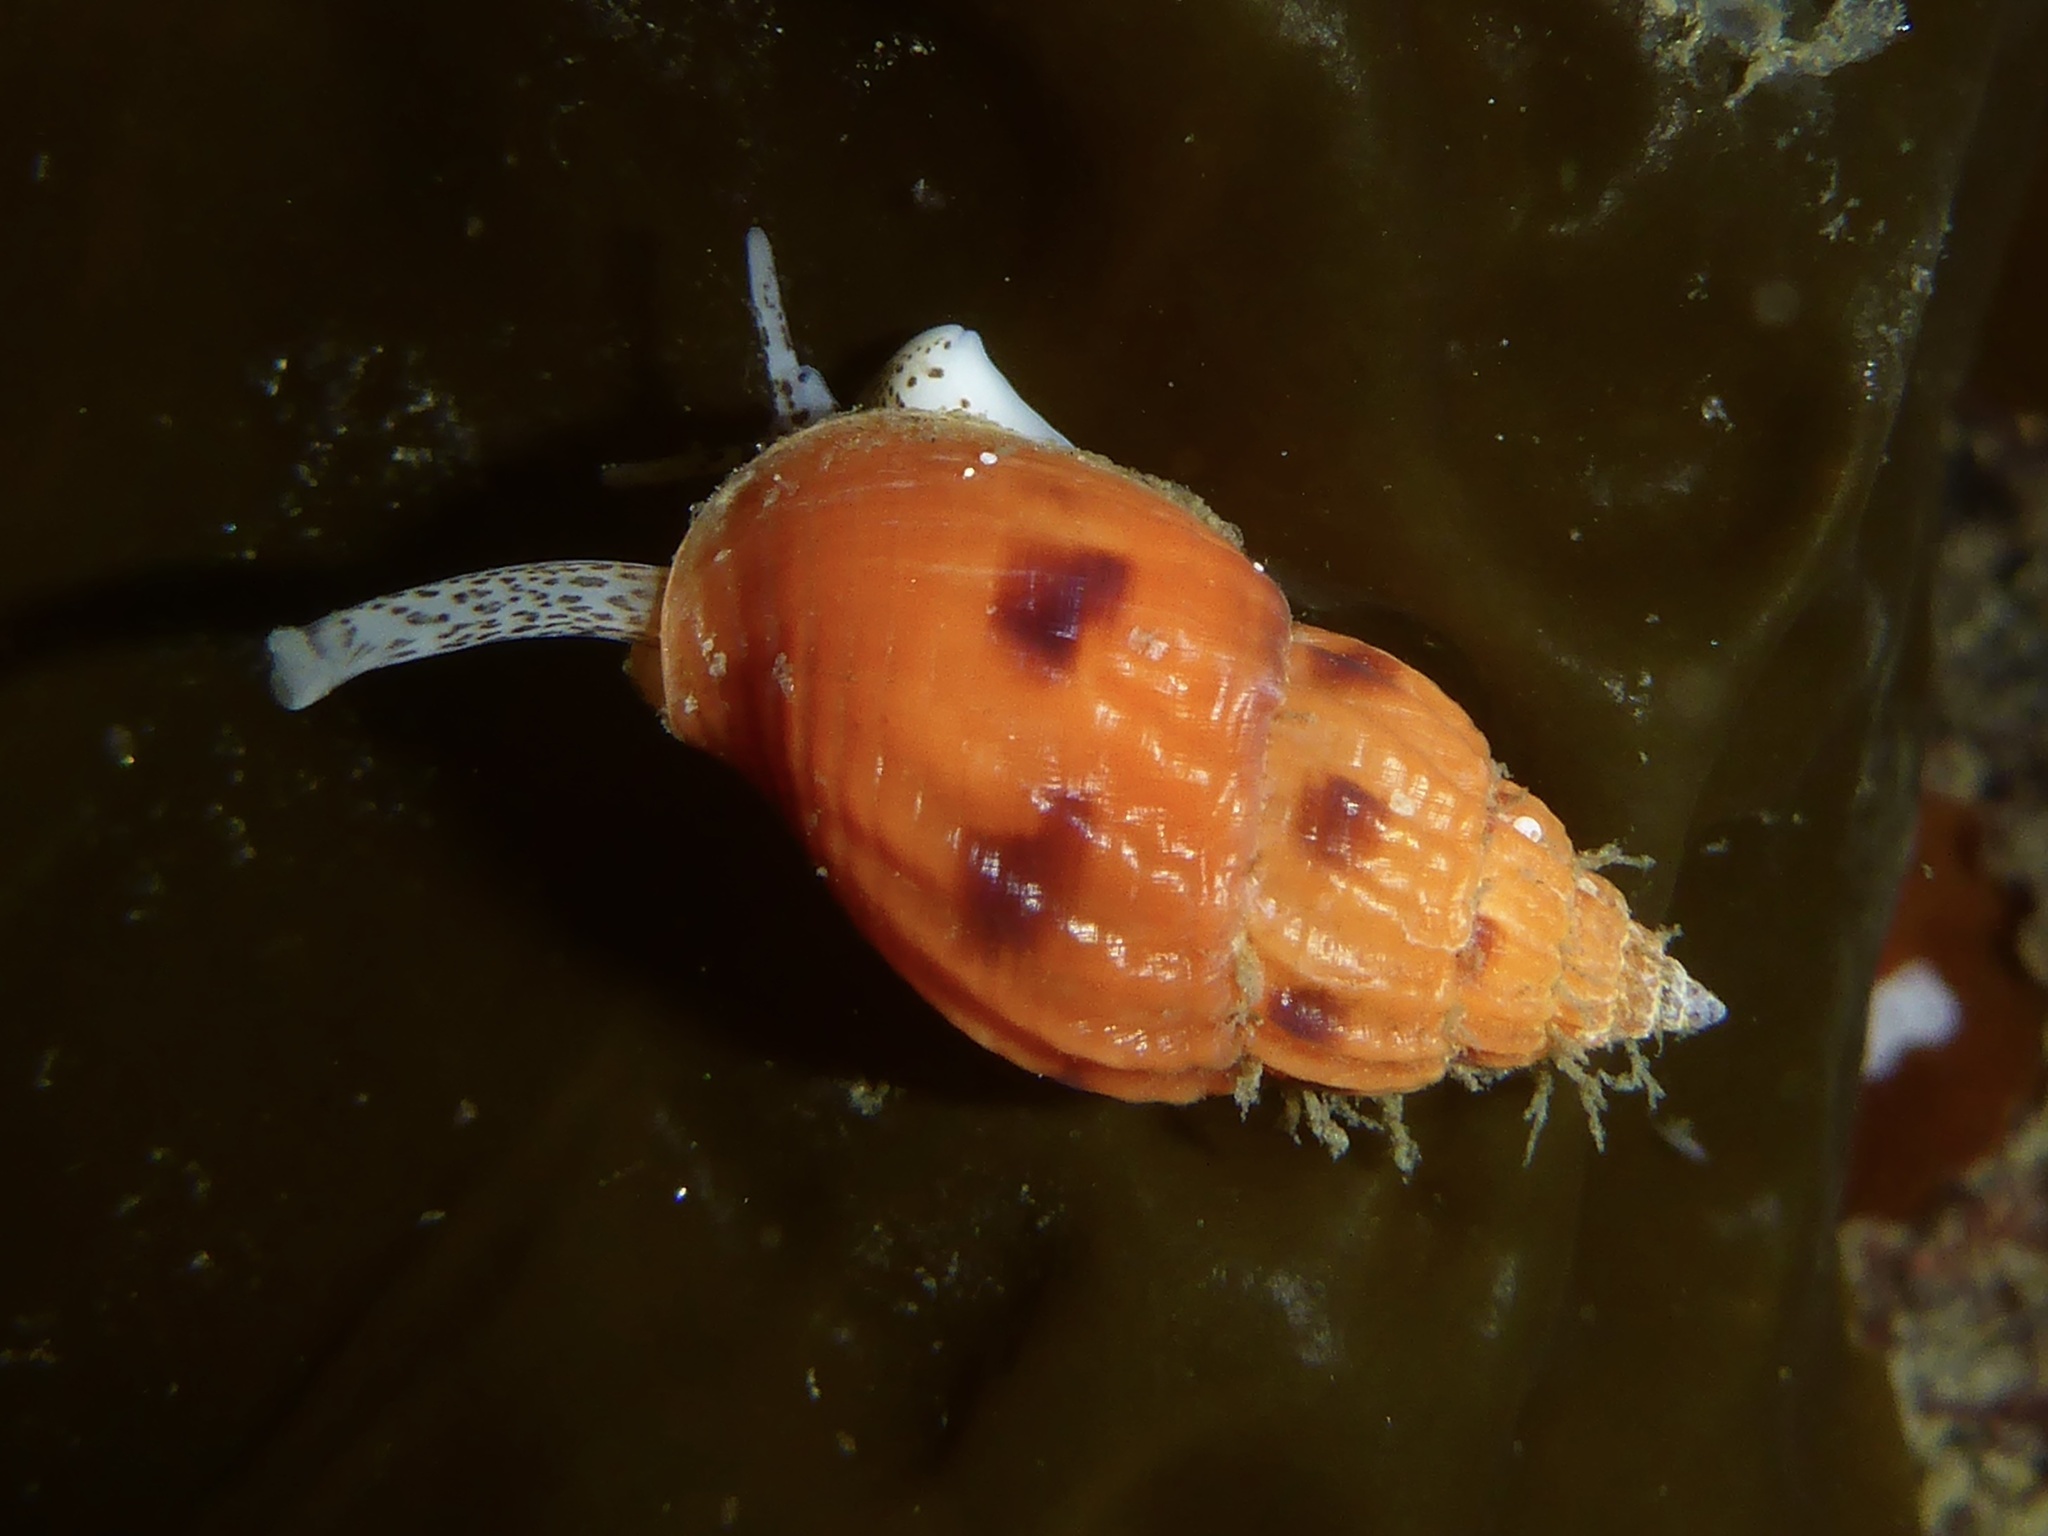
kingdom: Animalia
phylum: Mollusca
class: Gastropoda
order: Neogastropoda
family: Columbellidae
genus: Amphissa
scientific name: Amphissa versicolor
